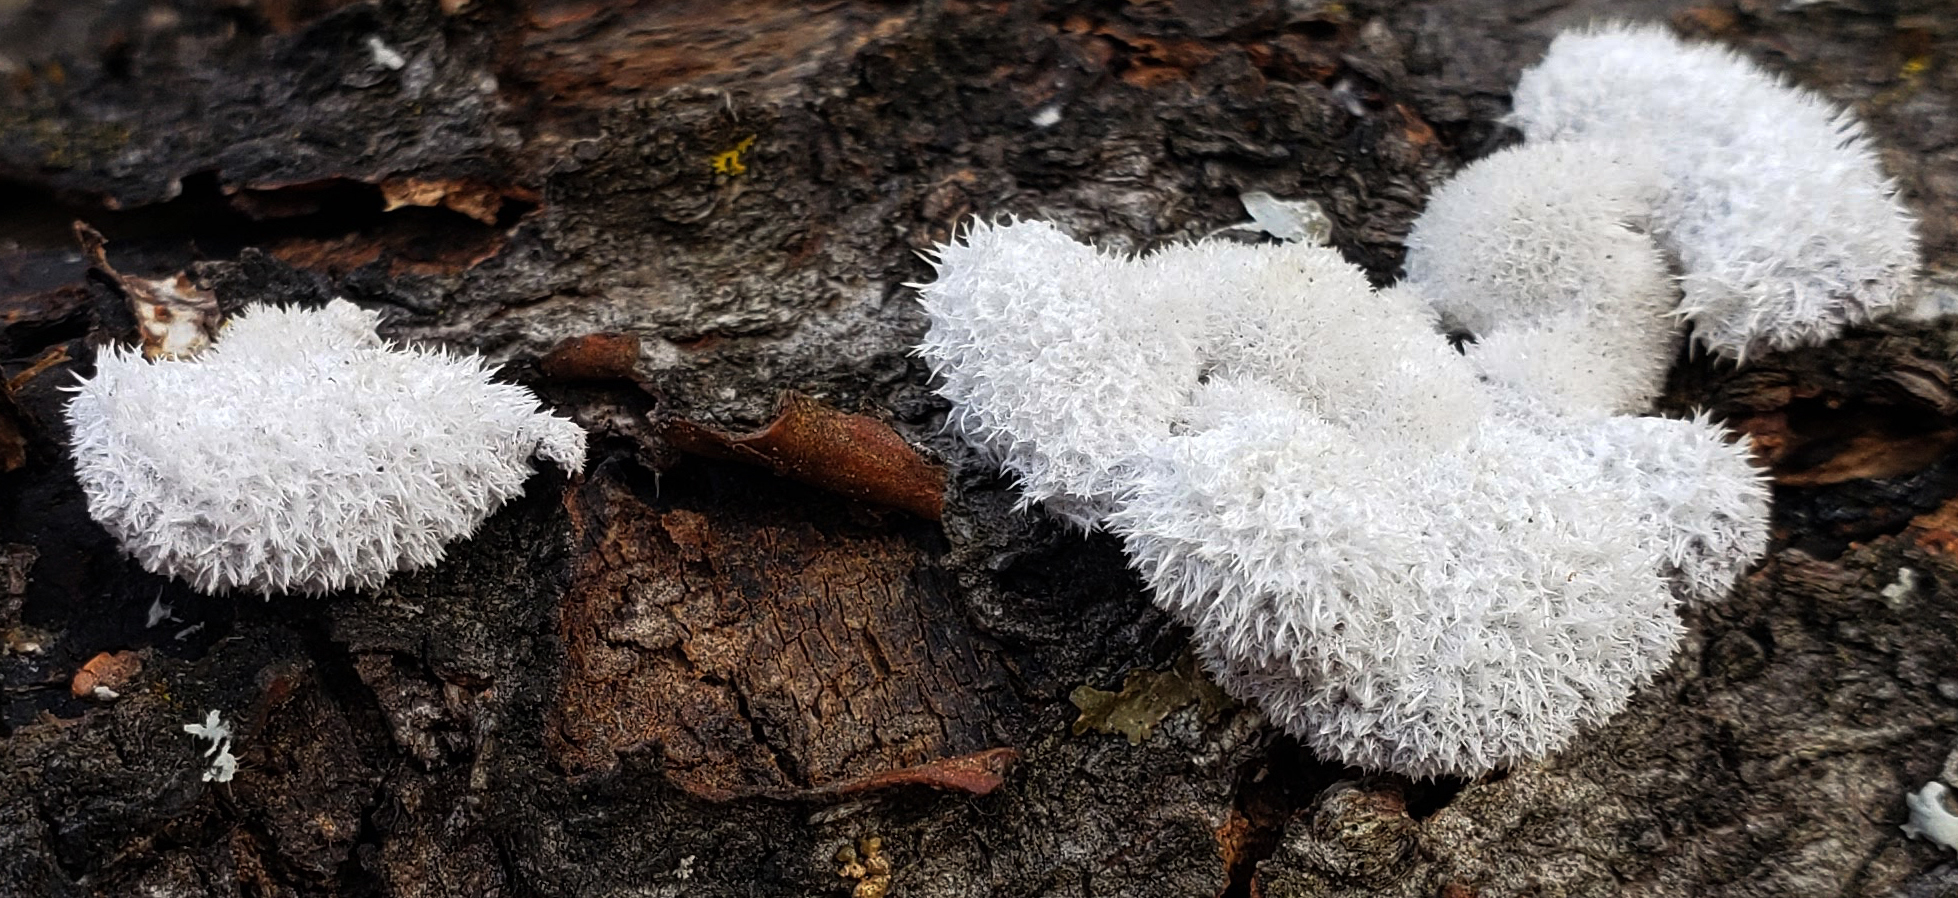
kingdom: Fungi
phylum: Basidiomycota
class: Agaricomycetes
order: Agaricales
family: Schizophyllaceae
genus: Schizophyllum
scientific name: Schizophyllum commune
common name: Common porecrust
